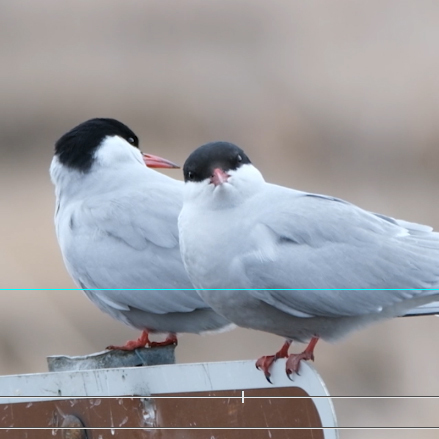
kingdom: Animalia
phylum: Chordata
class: Aves
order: Charadriiformes
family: Laridae
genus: Sterna
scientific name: Sterna paradisaea
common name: Arctic tern
